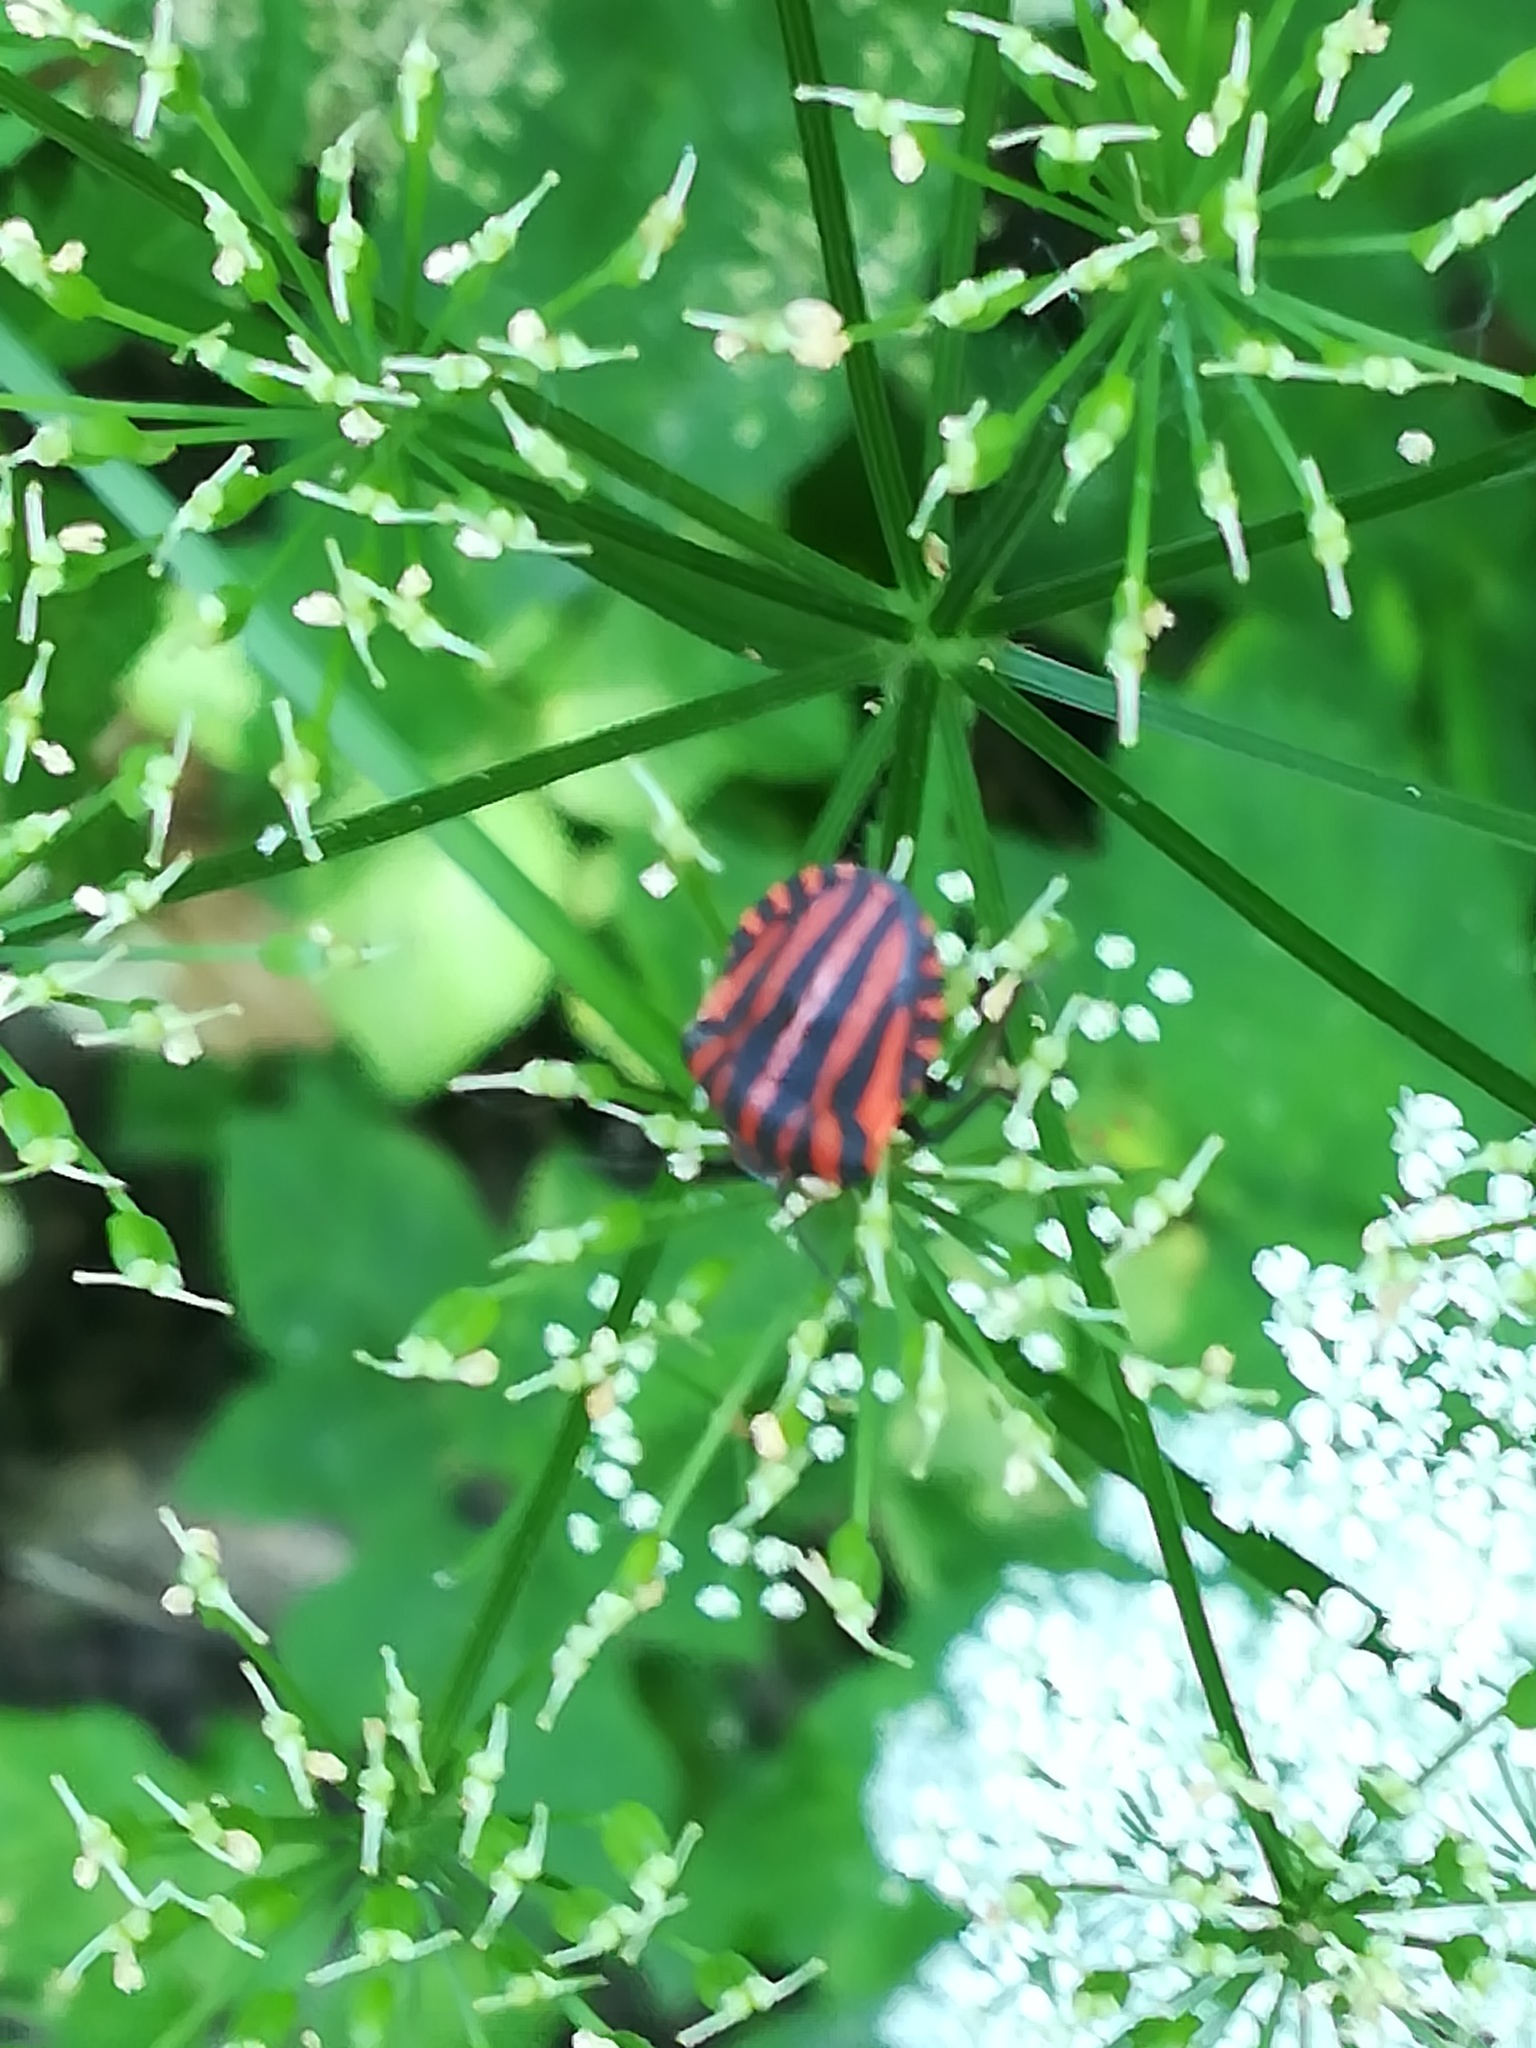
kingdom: Animalia
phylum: Arthropoda
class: Insecta
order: Hemiptera
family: Pentatomidae
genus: Graphosoma
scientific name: Graphosoma italicum
